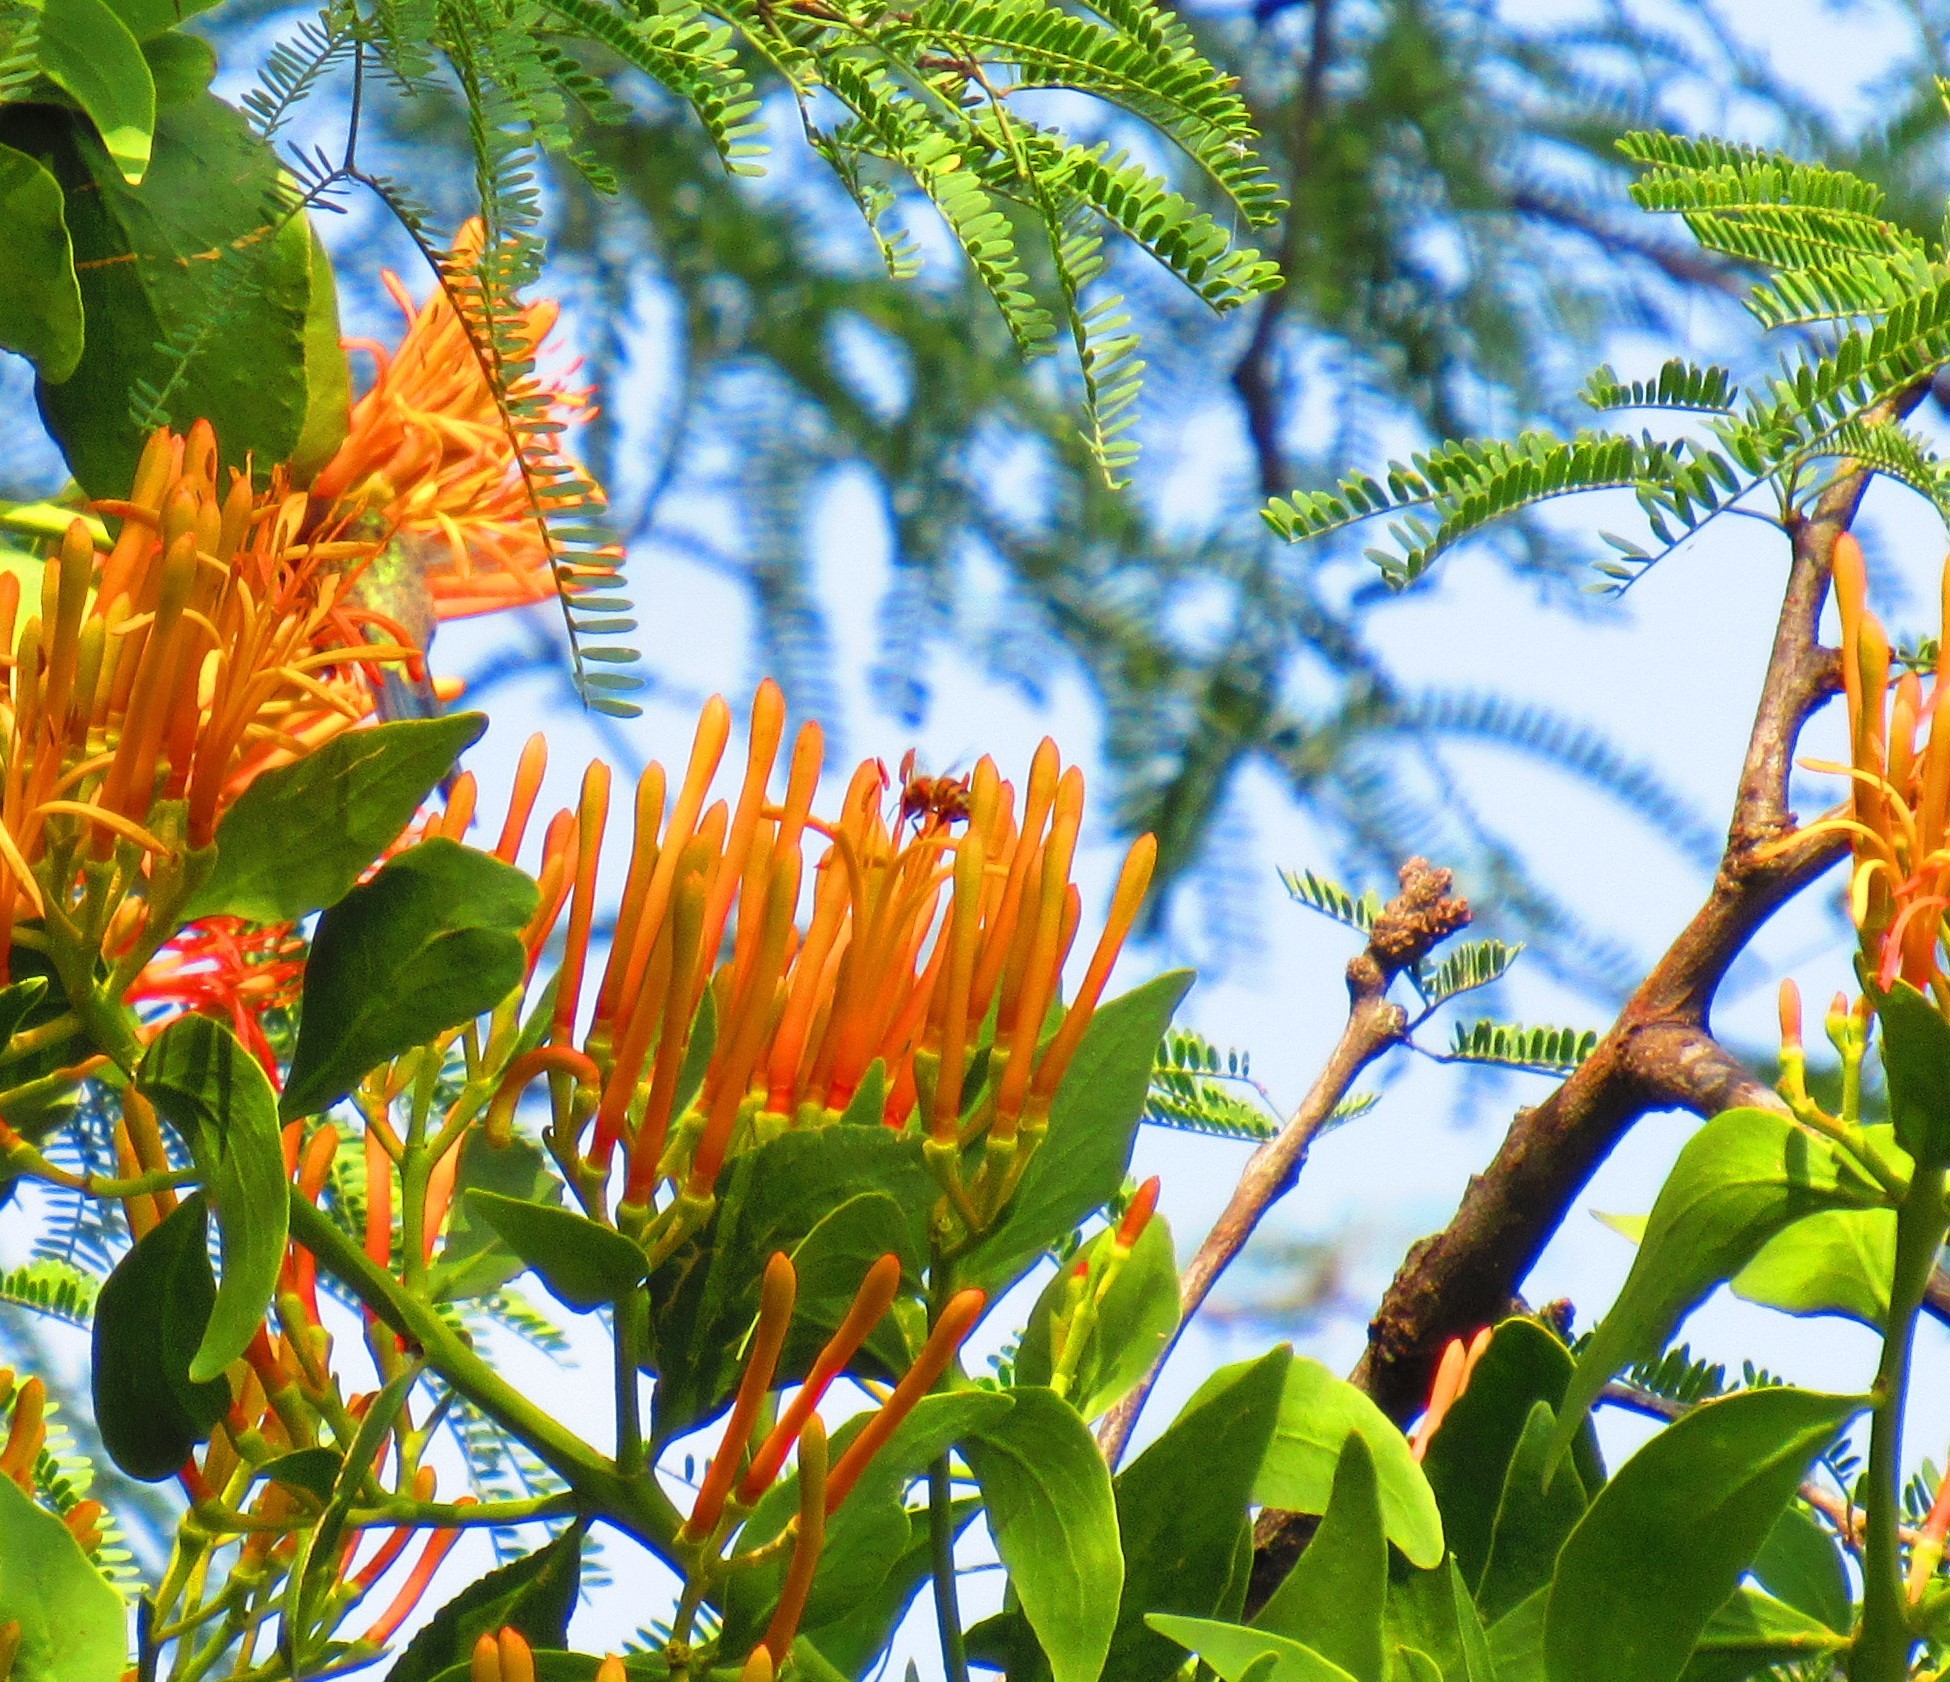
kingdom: Plantae
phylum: Tracheophyta
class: Magnoliopsida
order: Santalales
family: Loranthaceae
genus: Psittacanthus
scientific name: Psittacanthus calyculatus
